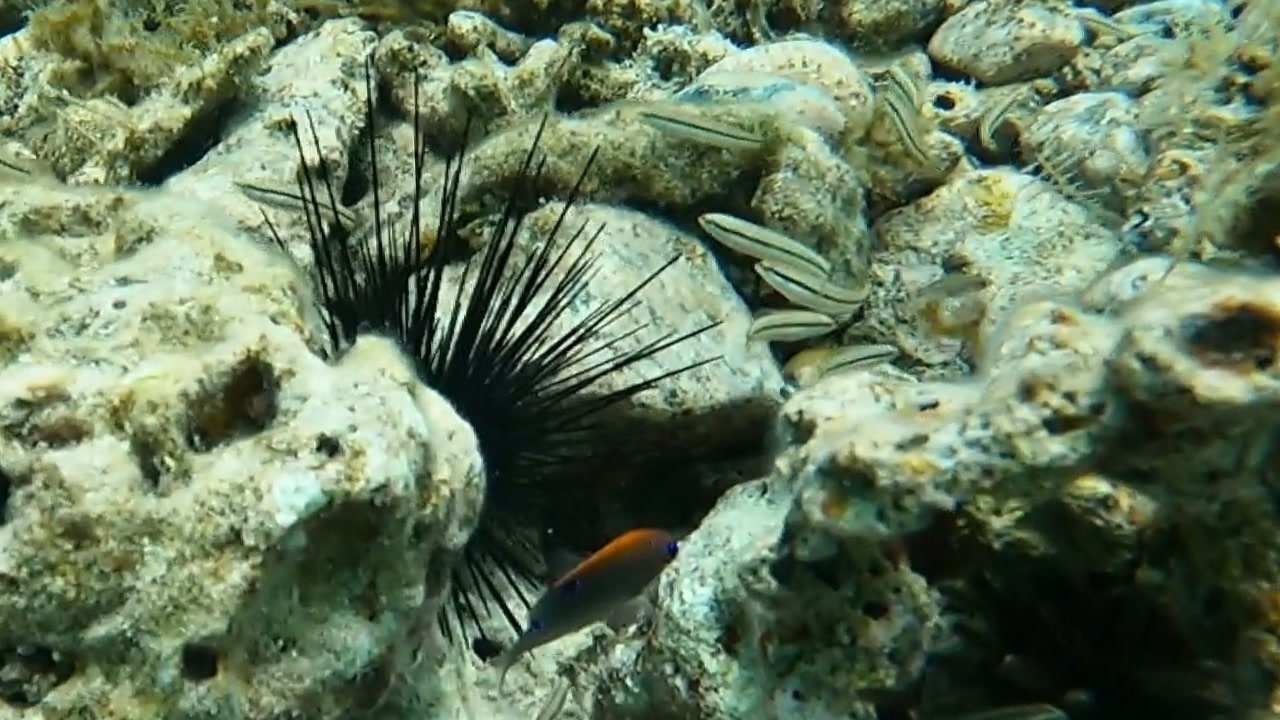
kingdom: Animalia
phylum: Echinodermata
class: Echinoidea
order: Diadematoida
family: Diadematidae
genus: Diadema
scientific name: Diadema antillarum
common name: Spiny urchin
